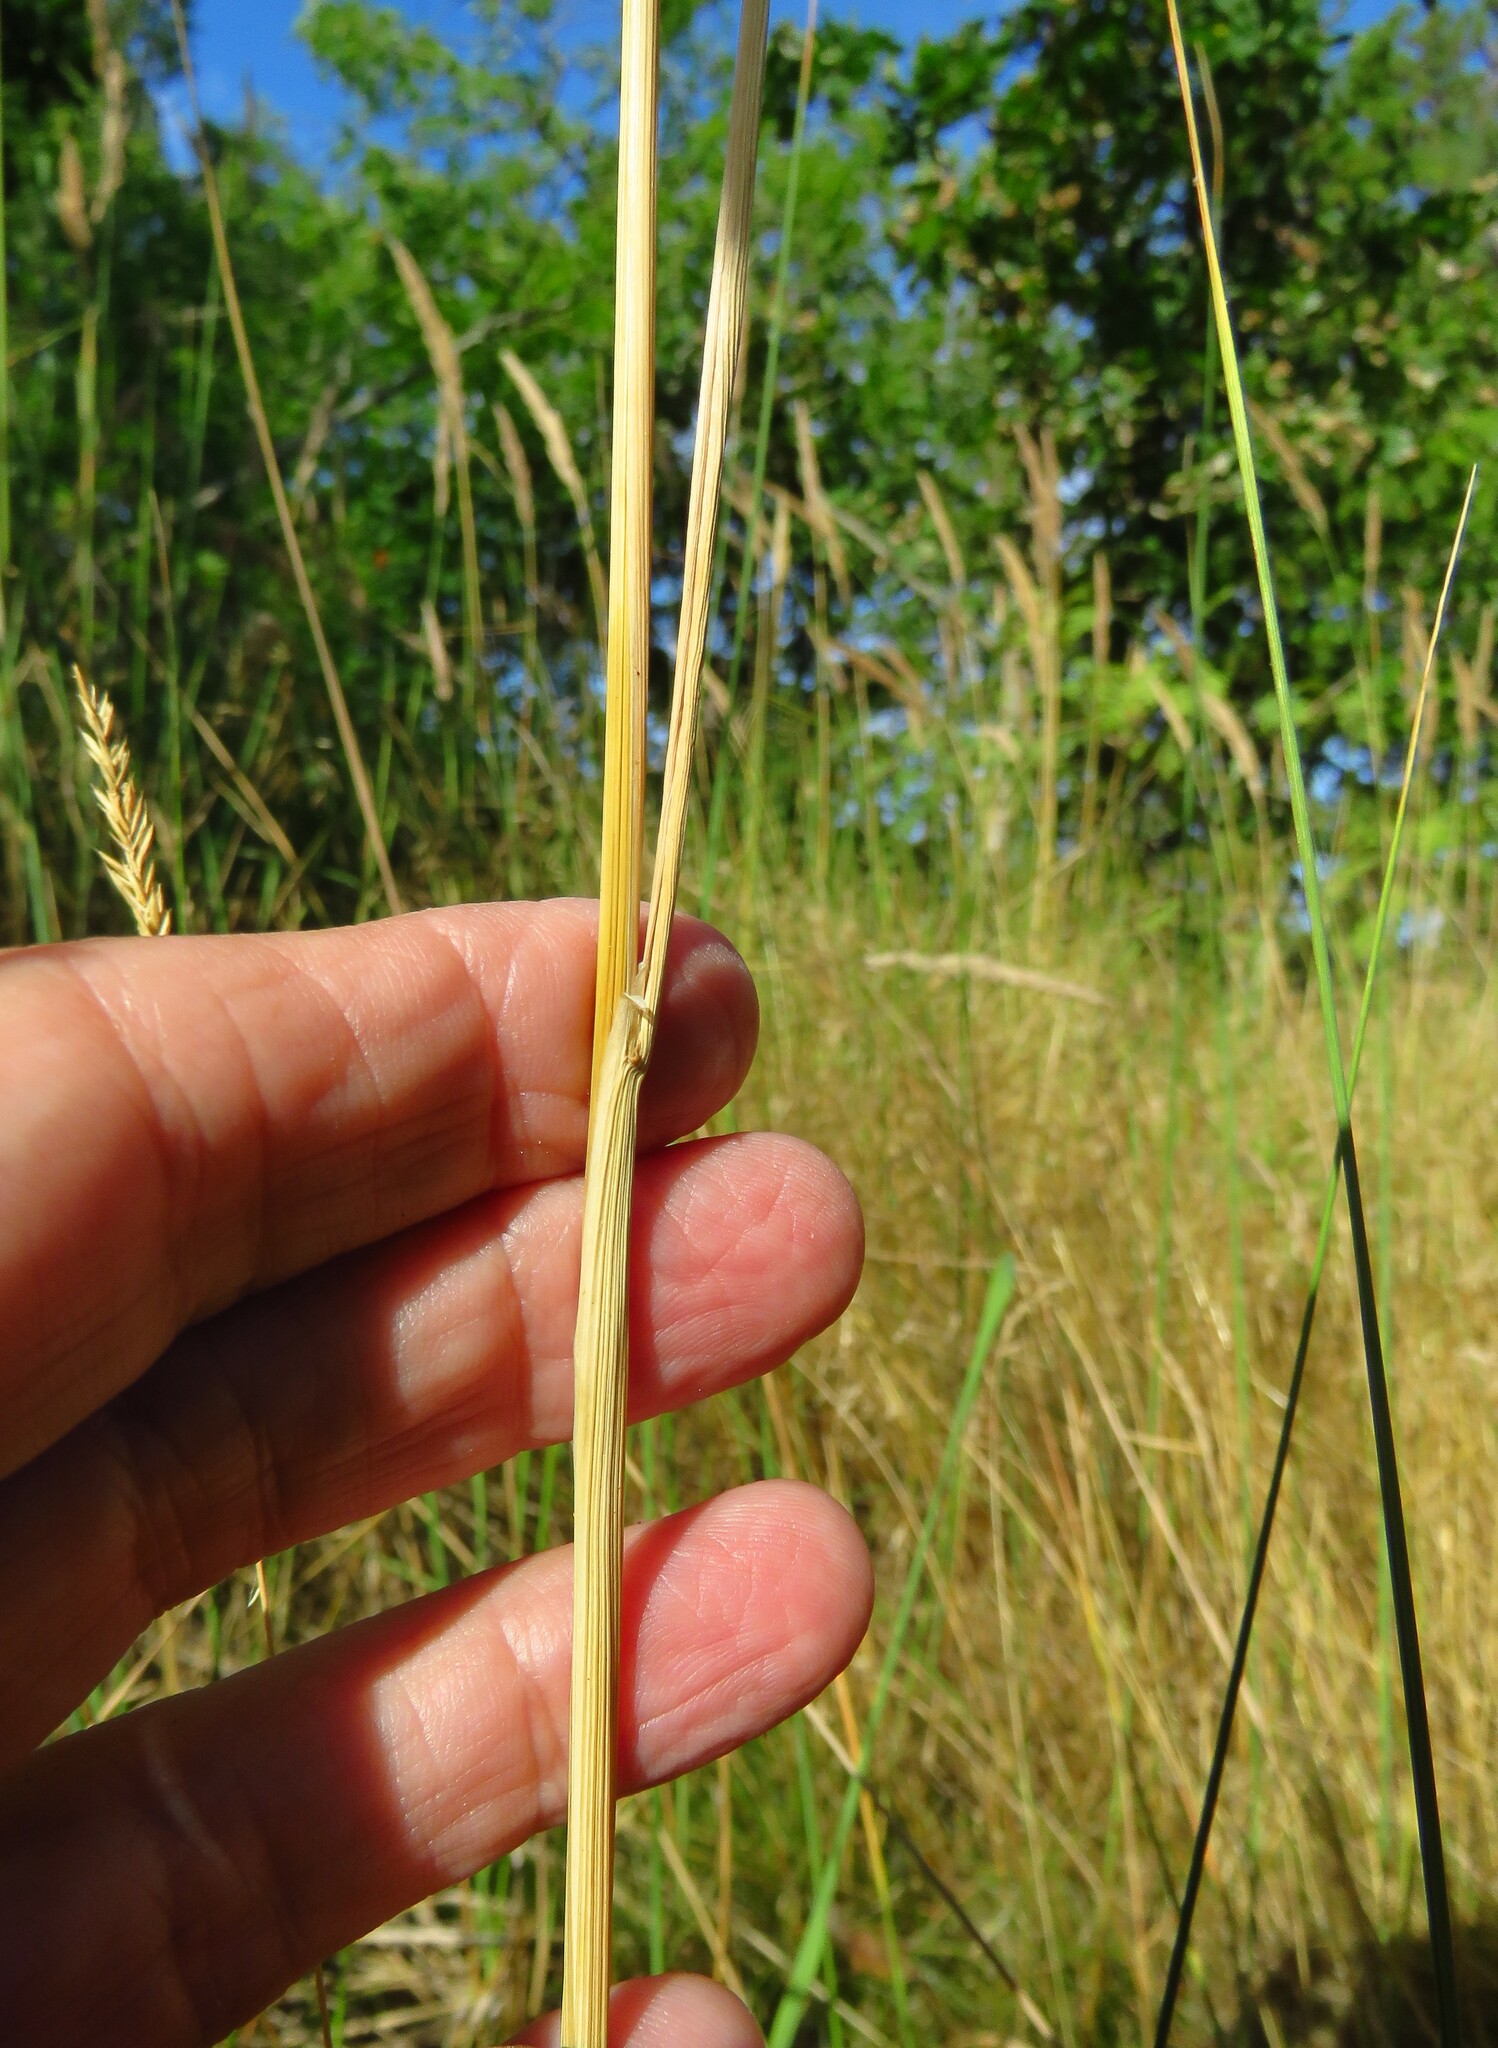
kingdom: Plantae
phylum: Tracheophyta
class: Liliopsida
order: Poales
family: Poaceae
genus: Calamagrostis
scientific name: Calamagrostis epigejos
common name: Wood small-reed
